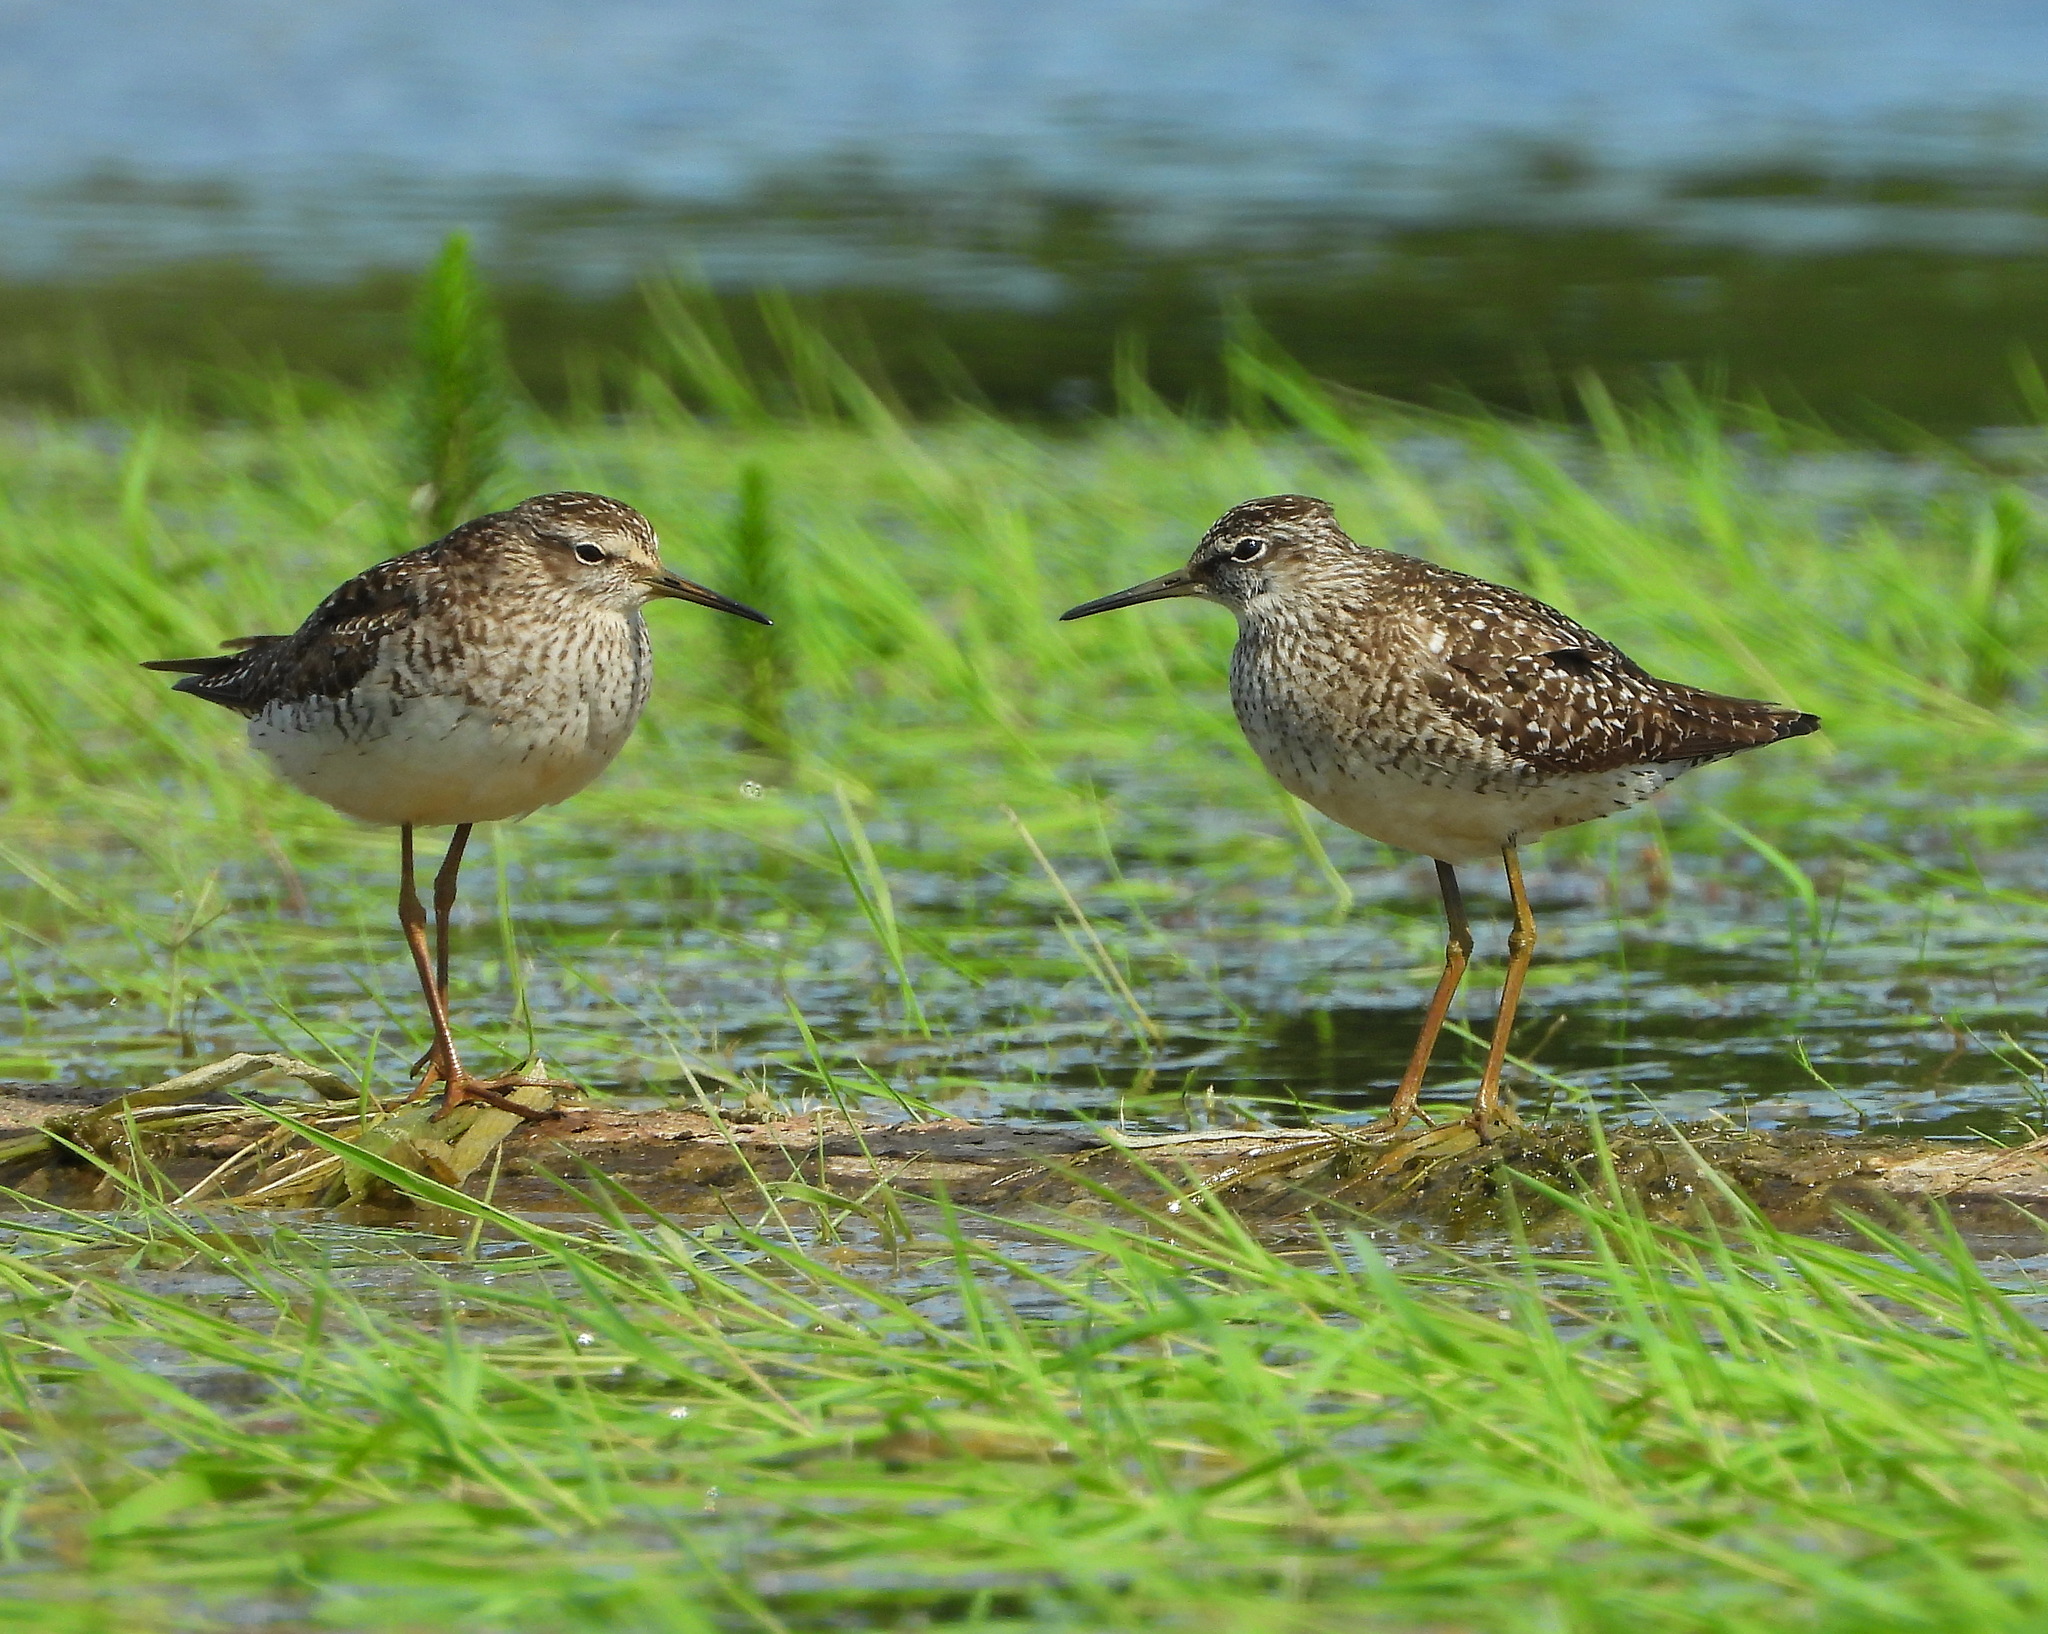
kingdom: Animalia
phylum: Chordata
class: Aves
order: Charadriiformes
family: Scolopacidae
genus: Tringa
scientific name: Tringa glareola
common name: Wood sandpiper
